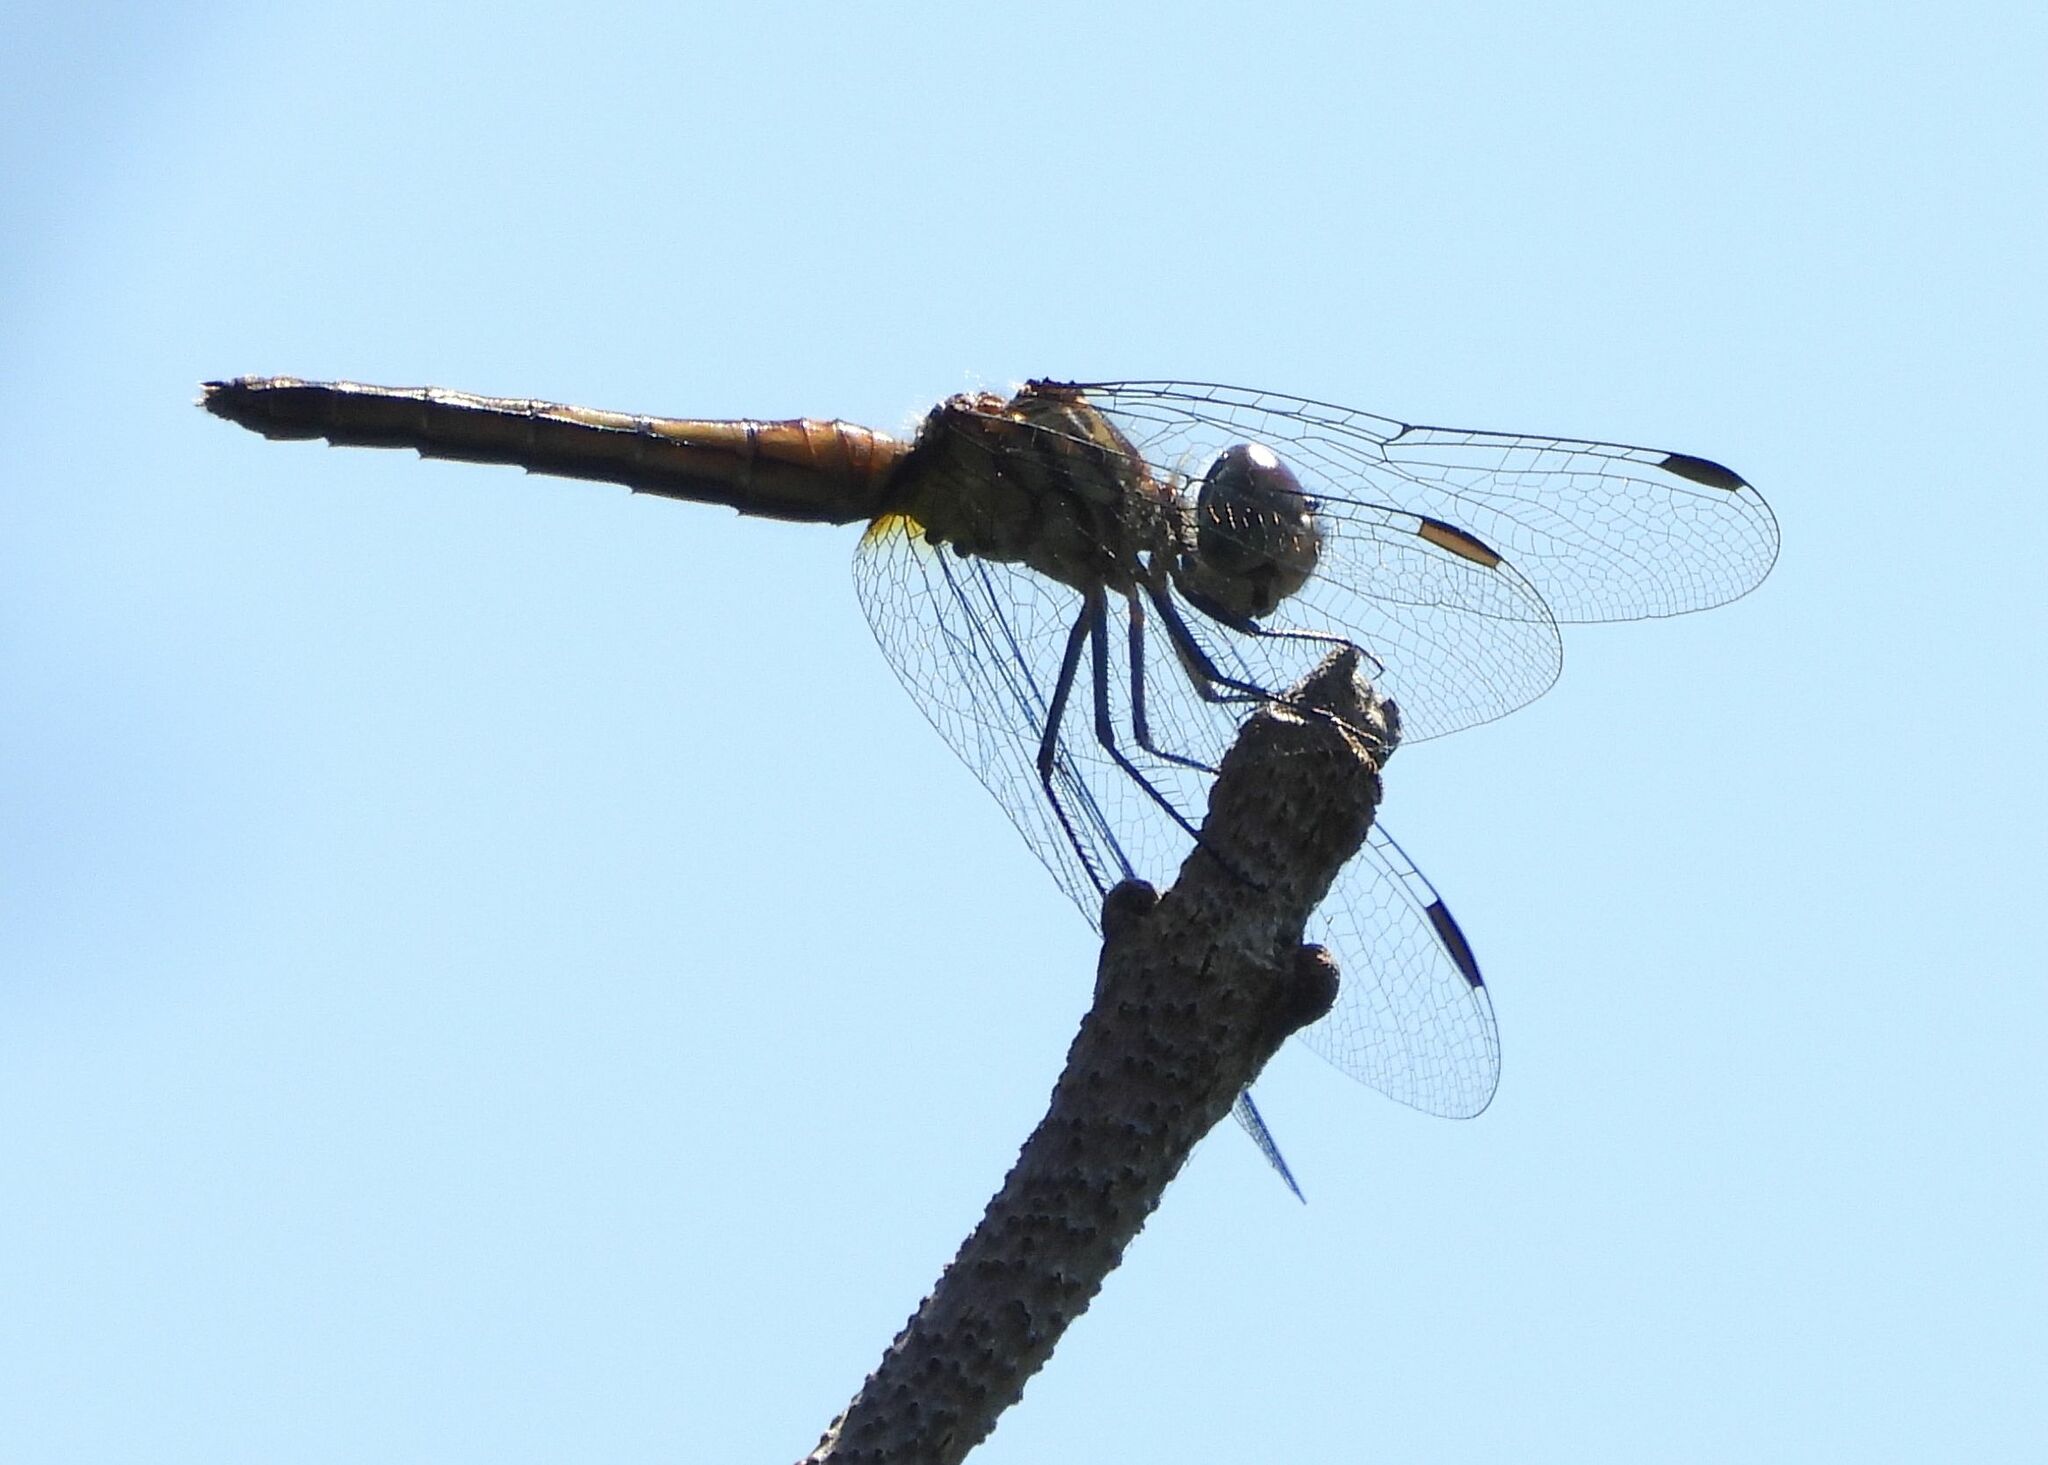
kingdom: Animalia
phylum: Arthropoda
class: Insecta
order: Odonata
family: Libellulidae
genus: Pachydiplax
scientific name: Pachydiplax longipennis
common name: Blue dasher
